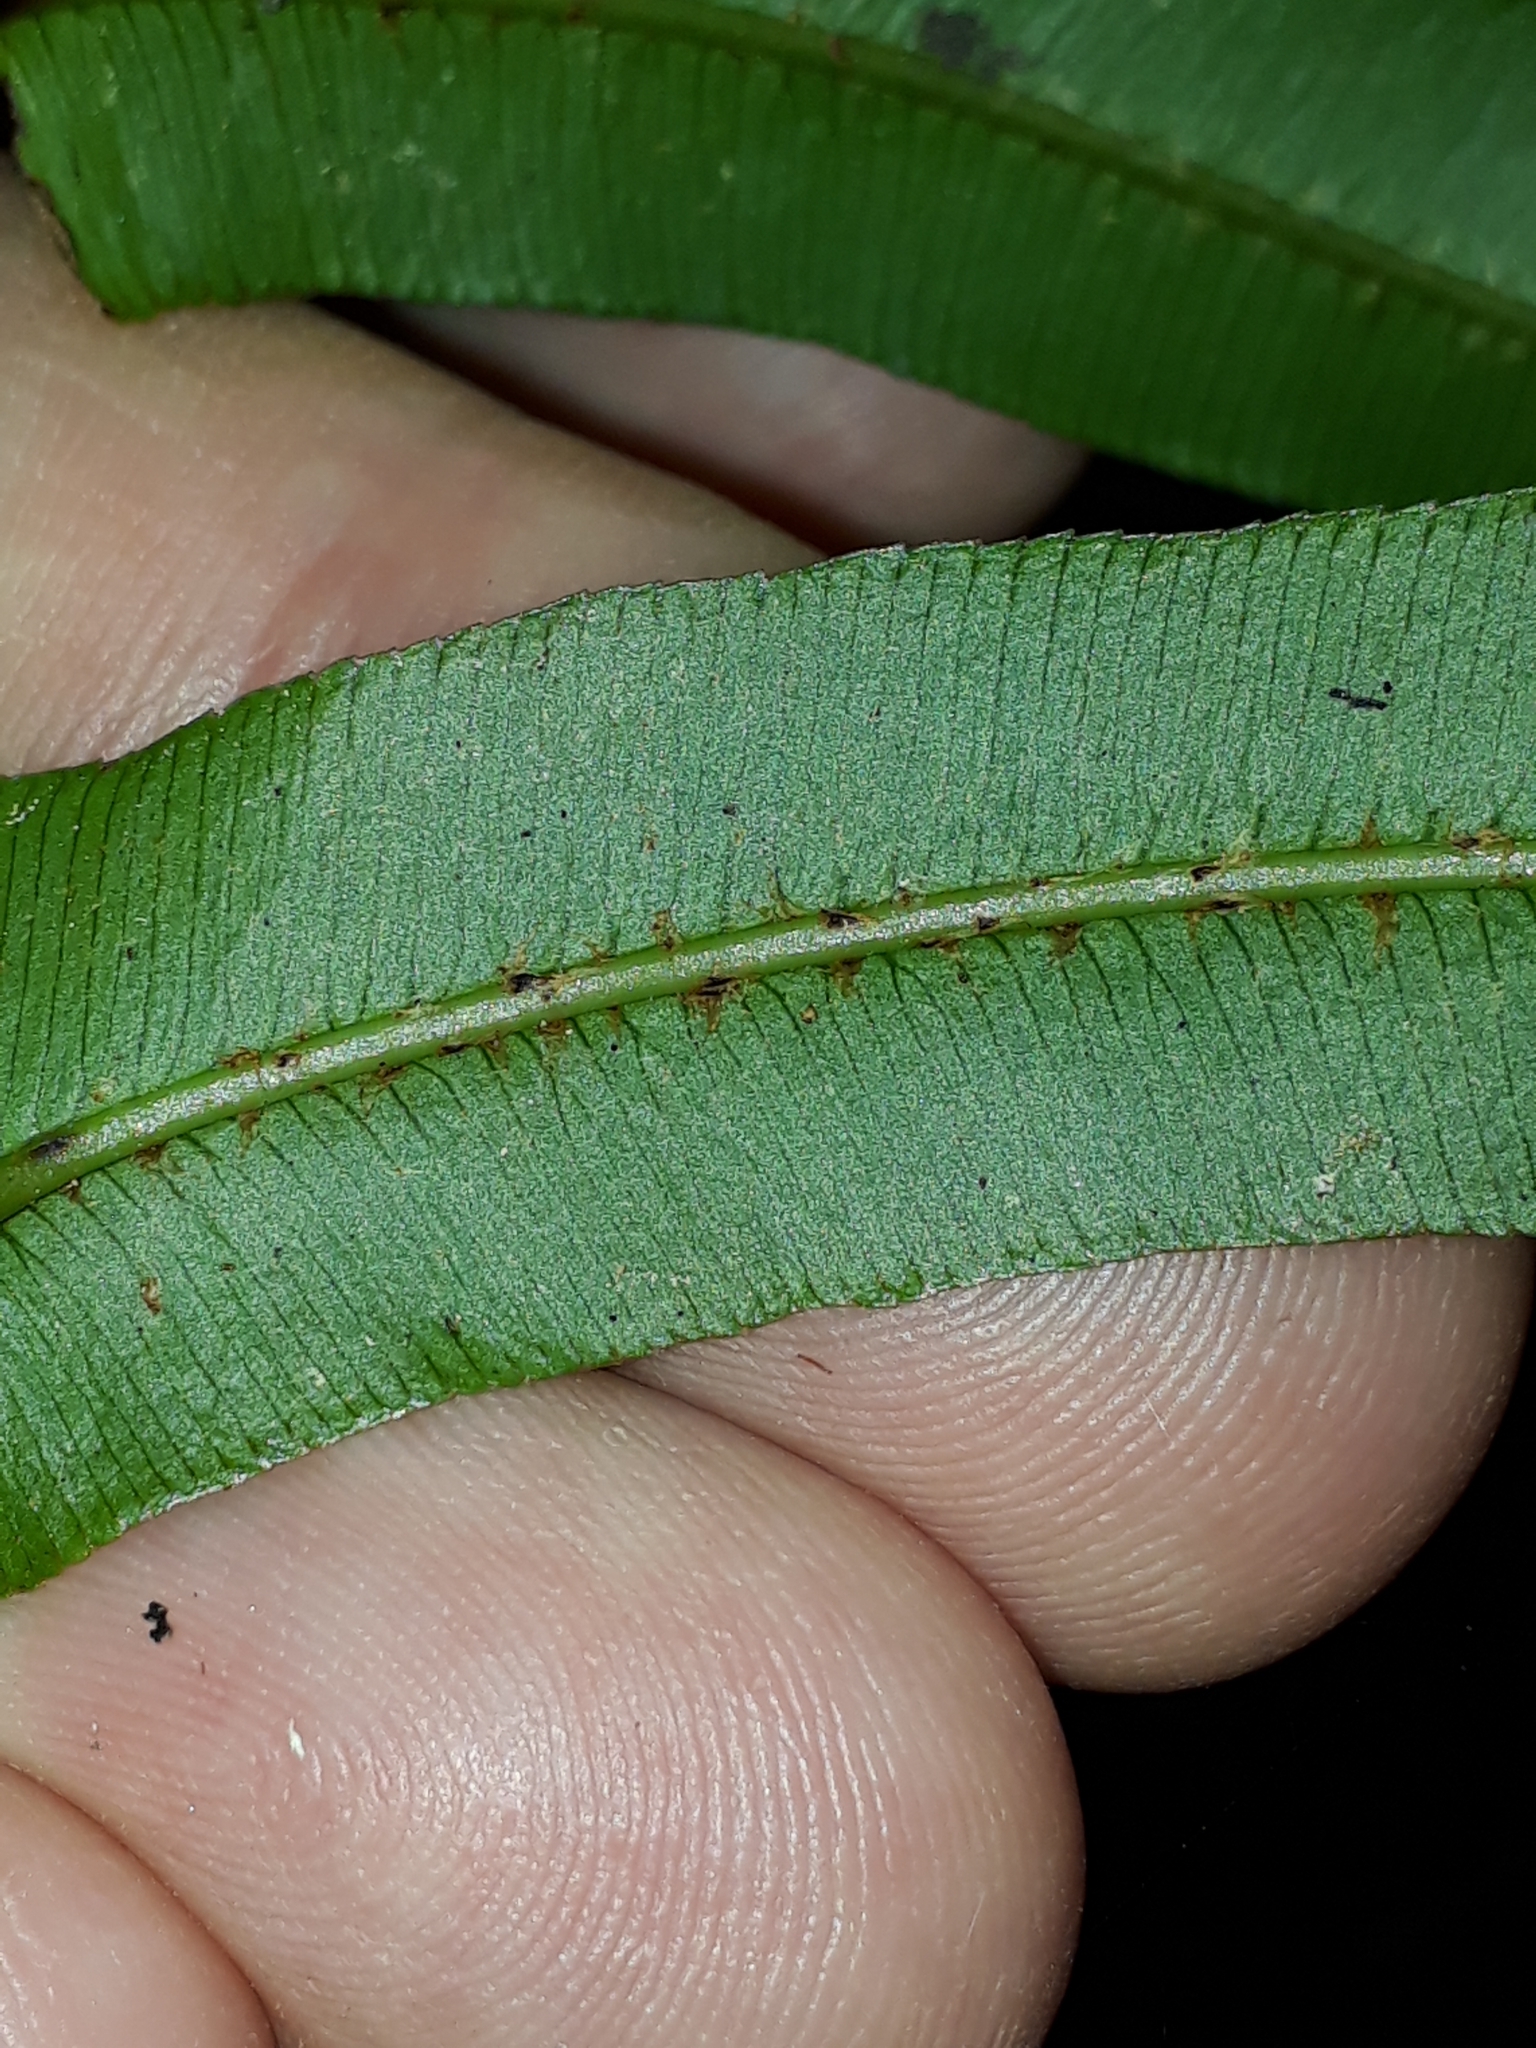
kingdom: Plantae
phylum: Tracheophyta
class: Polypodiopsida
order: Polypodiales
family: Blechnaceae
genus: Parablechnum
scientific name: Parablechnum novae-zelandiae
